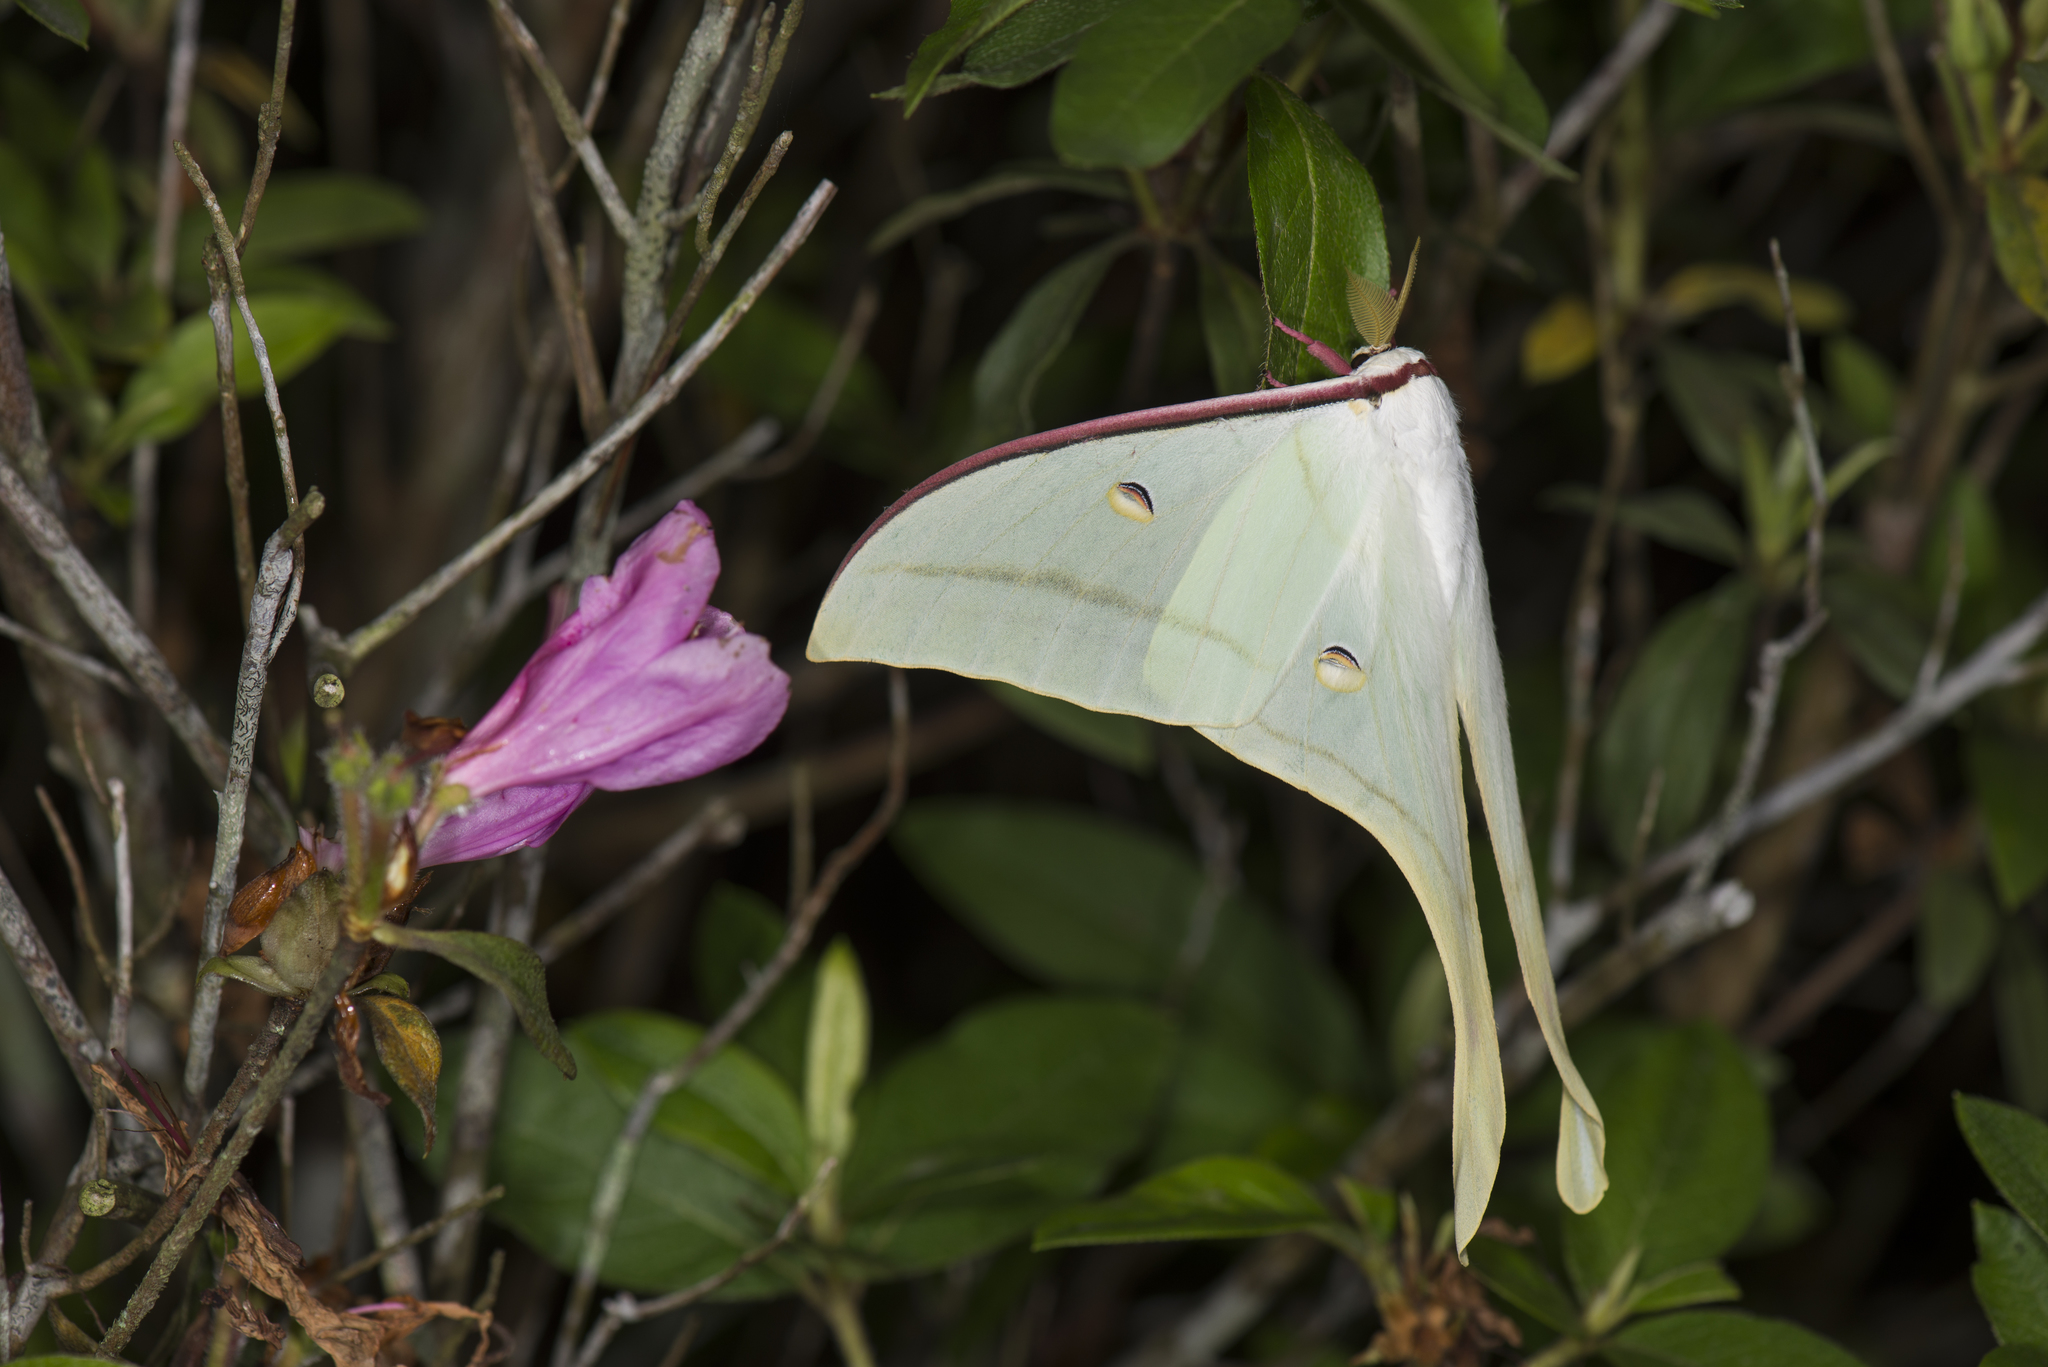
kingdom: Animalia
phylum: Arthropoda
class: Insecta
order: Lepidoptera
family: Saturniidae
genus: Actias
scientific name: Actias ningpoana
